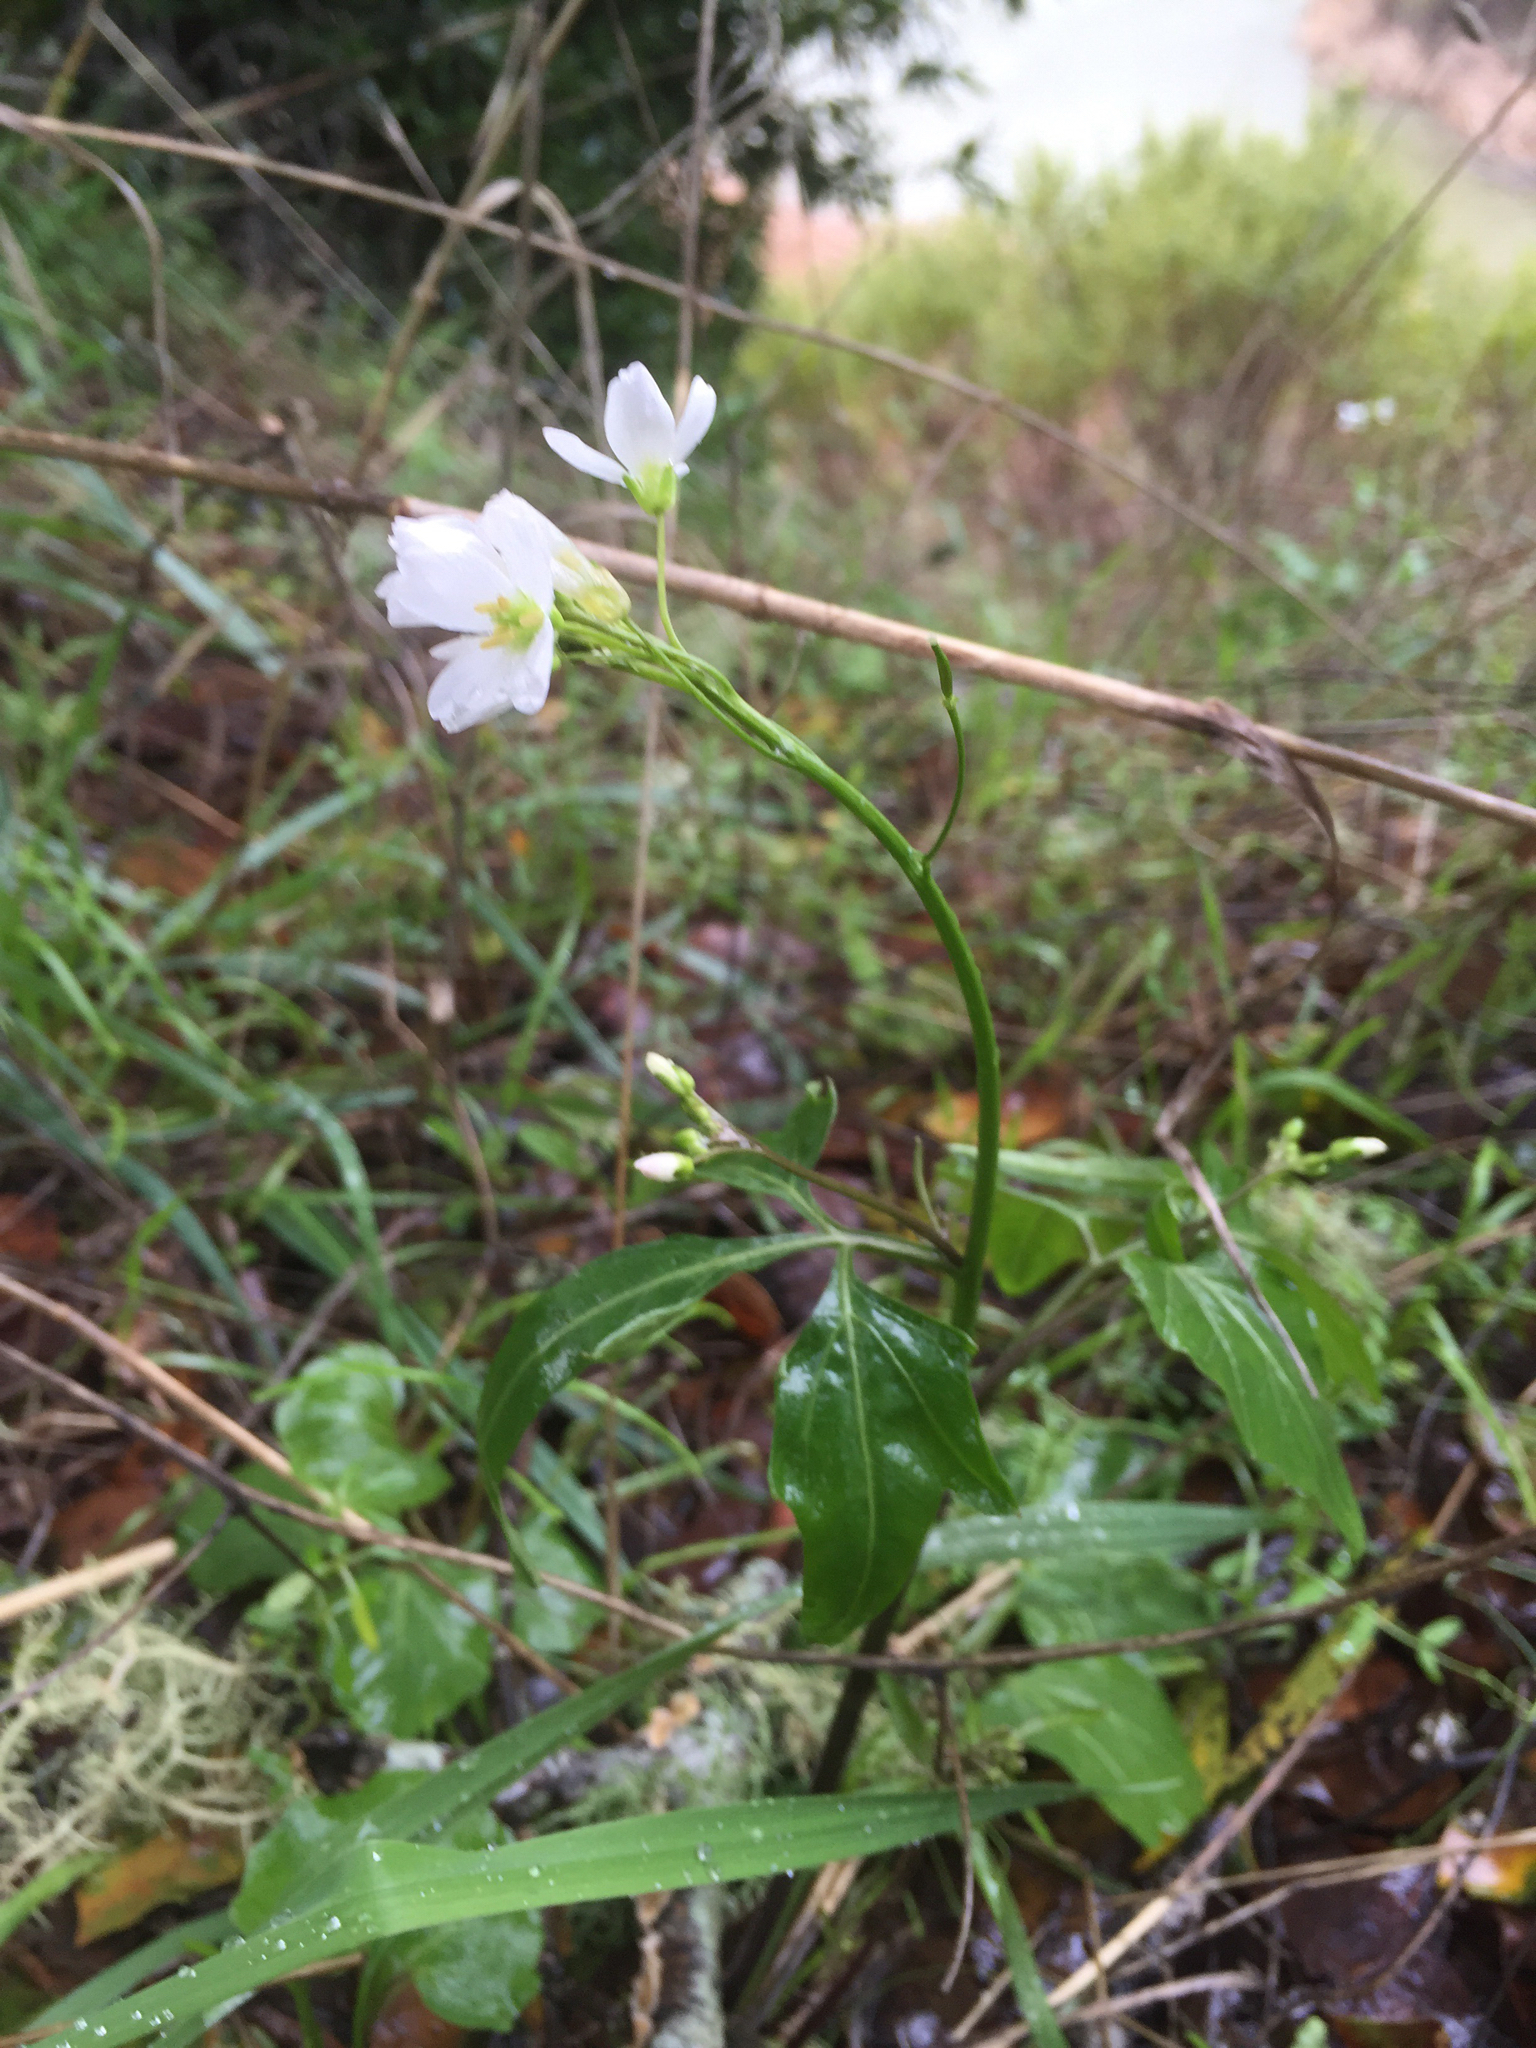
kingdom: Plantae
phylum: Tracheophyta
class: Magnoliopsida
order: Brassicales
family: Brassicaceae
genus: Cardamine
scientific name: Cardamine californica
